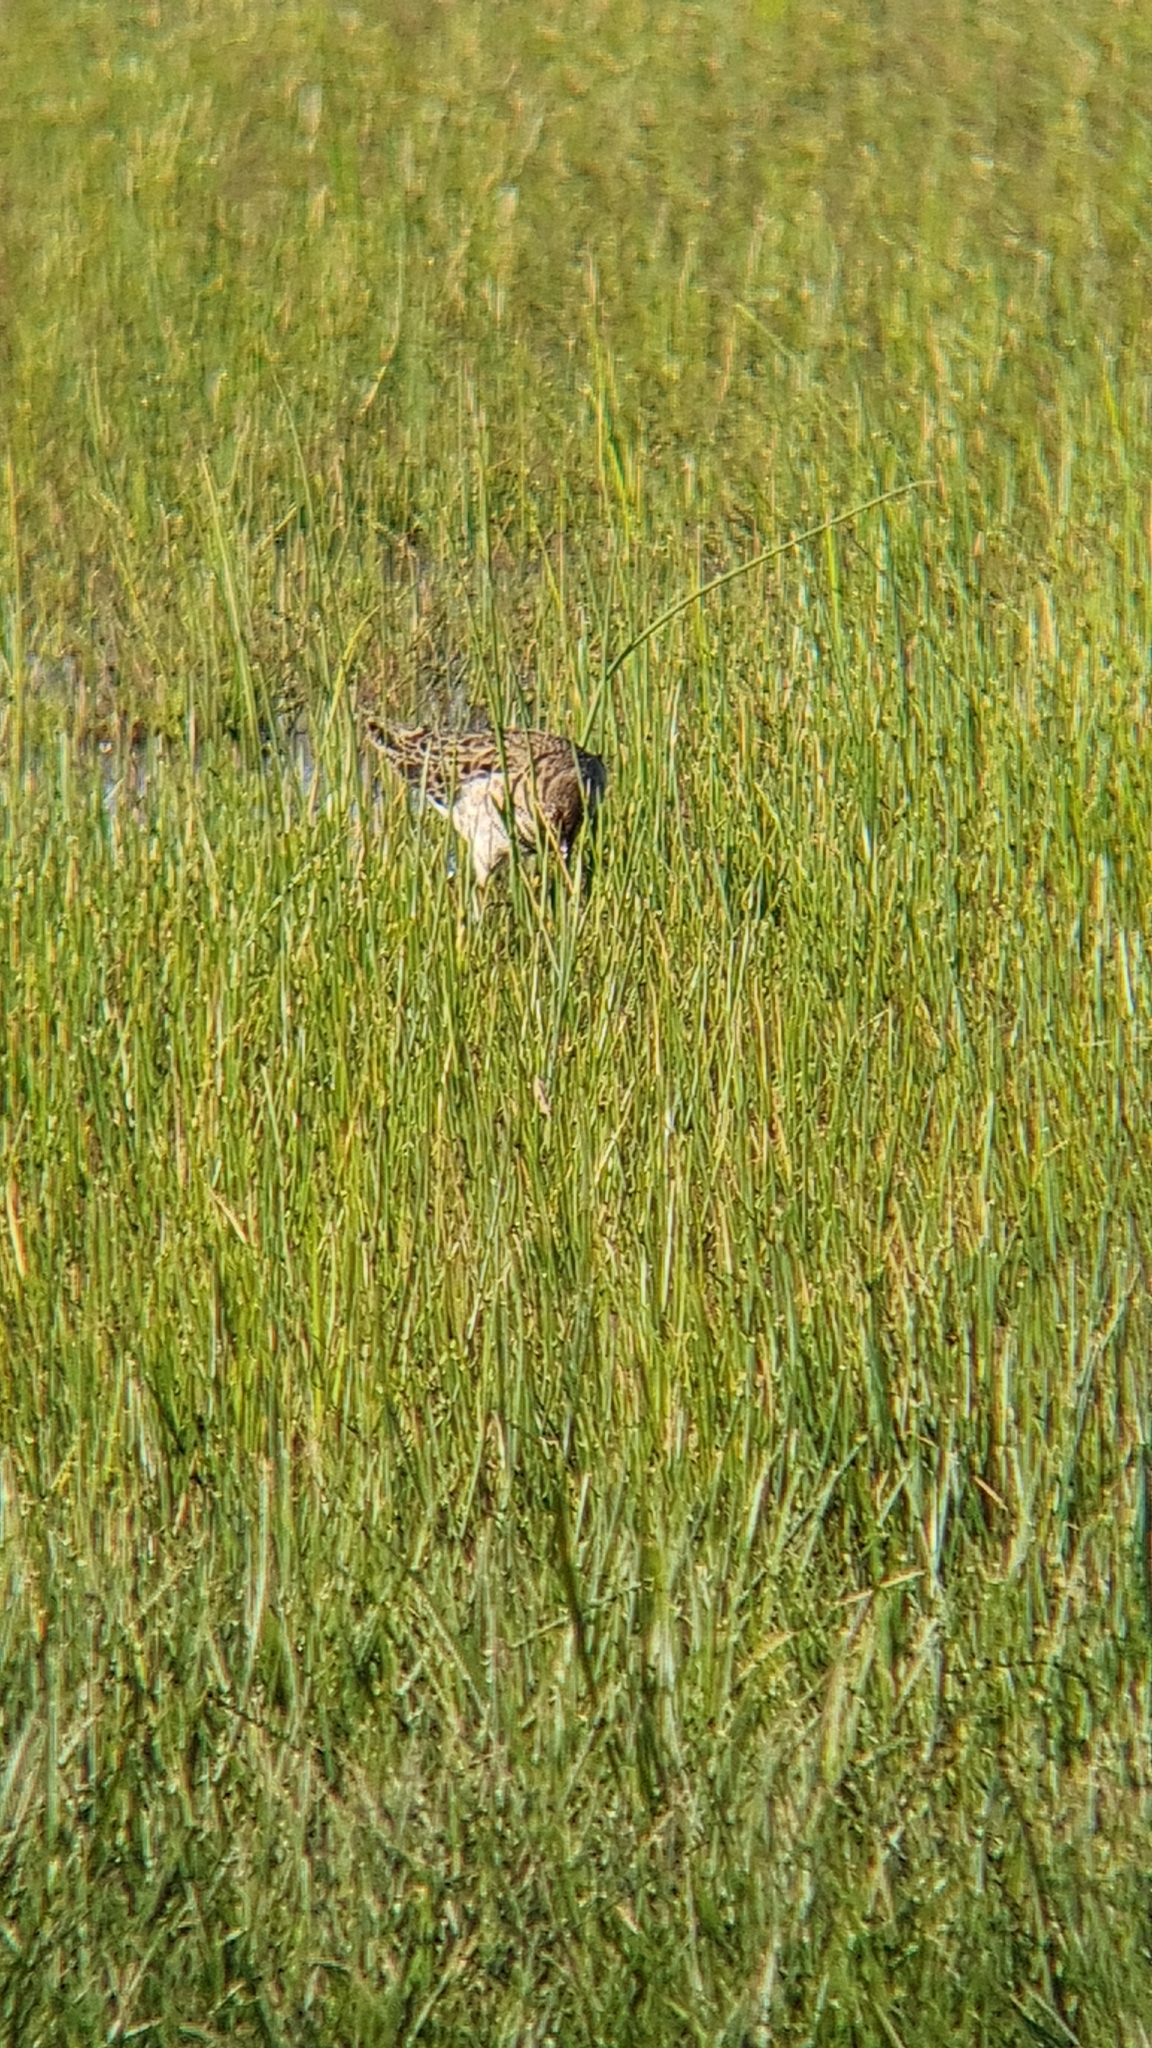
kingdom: Animalia
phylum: Chordata
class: Aves
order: Charadriiformes
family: Scolopacidae
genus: Calidris
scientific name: Calidris pugnax
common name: Ruff
